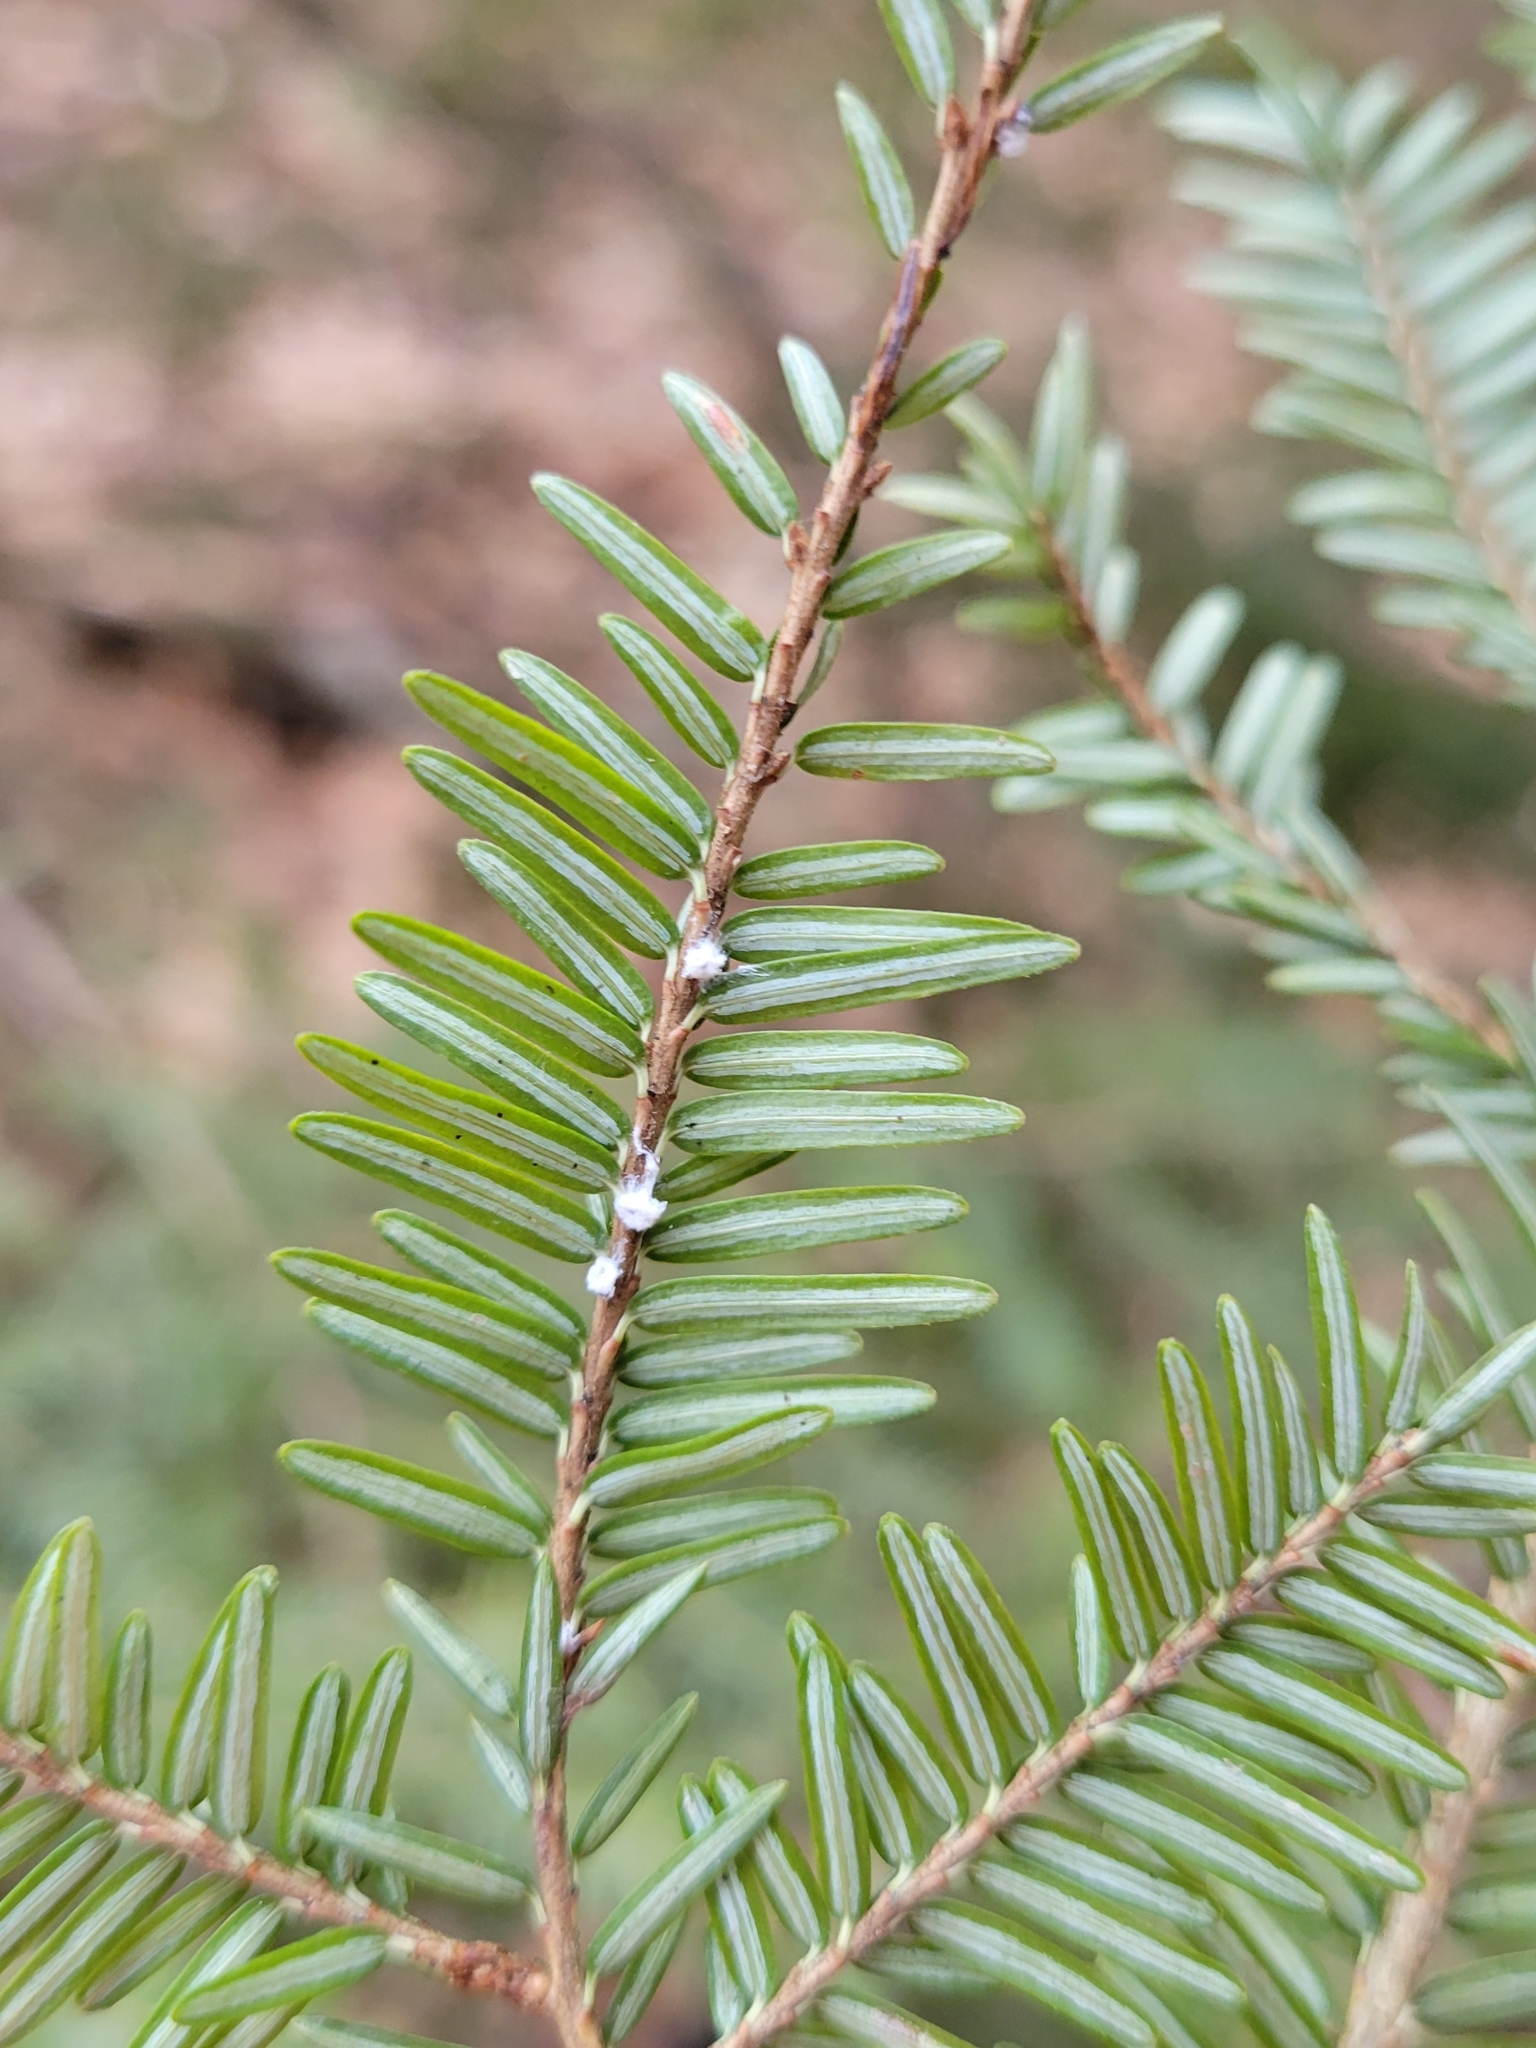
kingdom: Animalia
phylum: Arthropoda
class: Insecta
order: Hemiptera
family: Adelgidae
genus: Adelges
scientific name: Adelges tsugae
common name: Hemlock woolly adelgid
